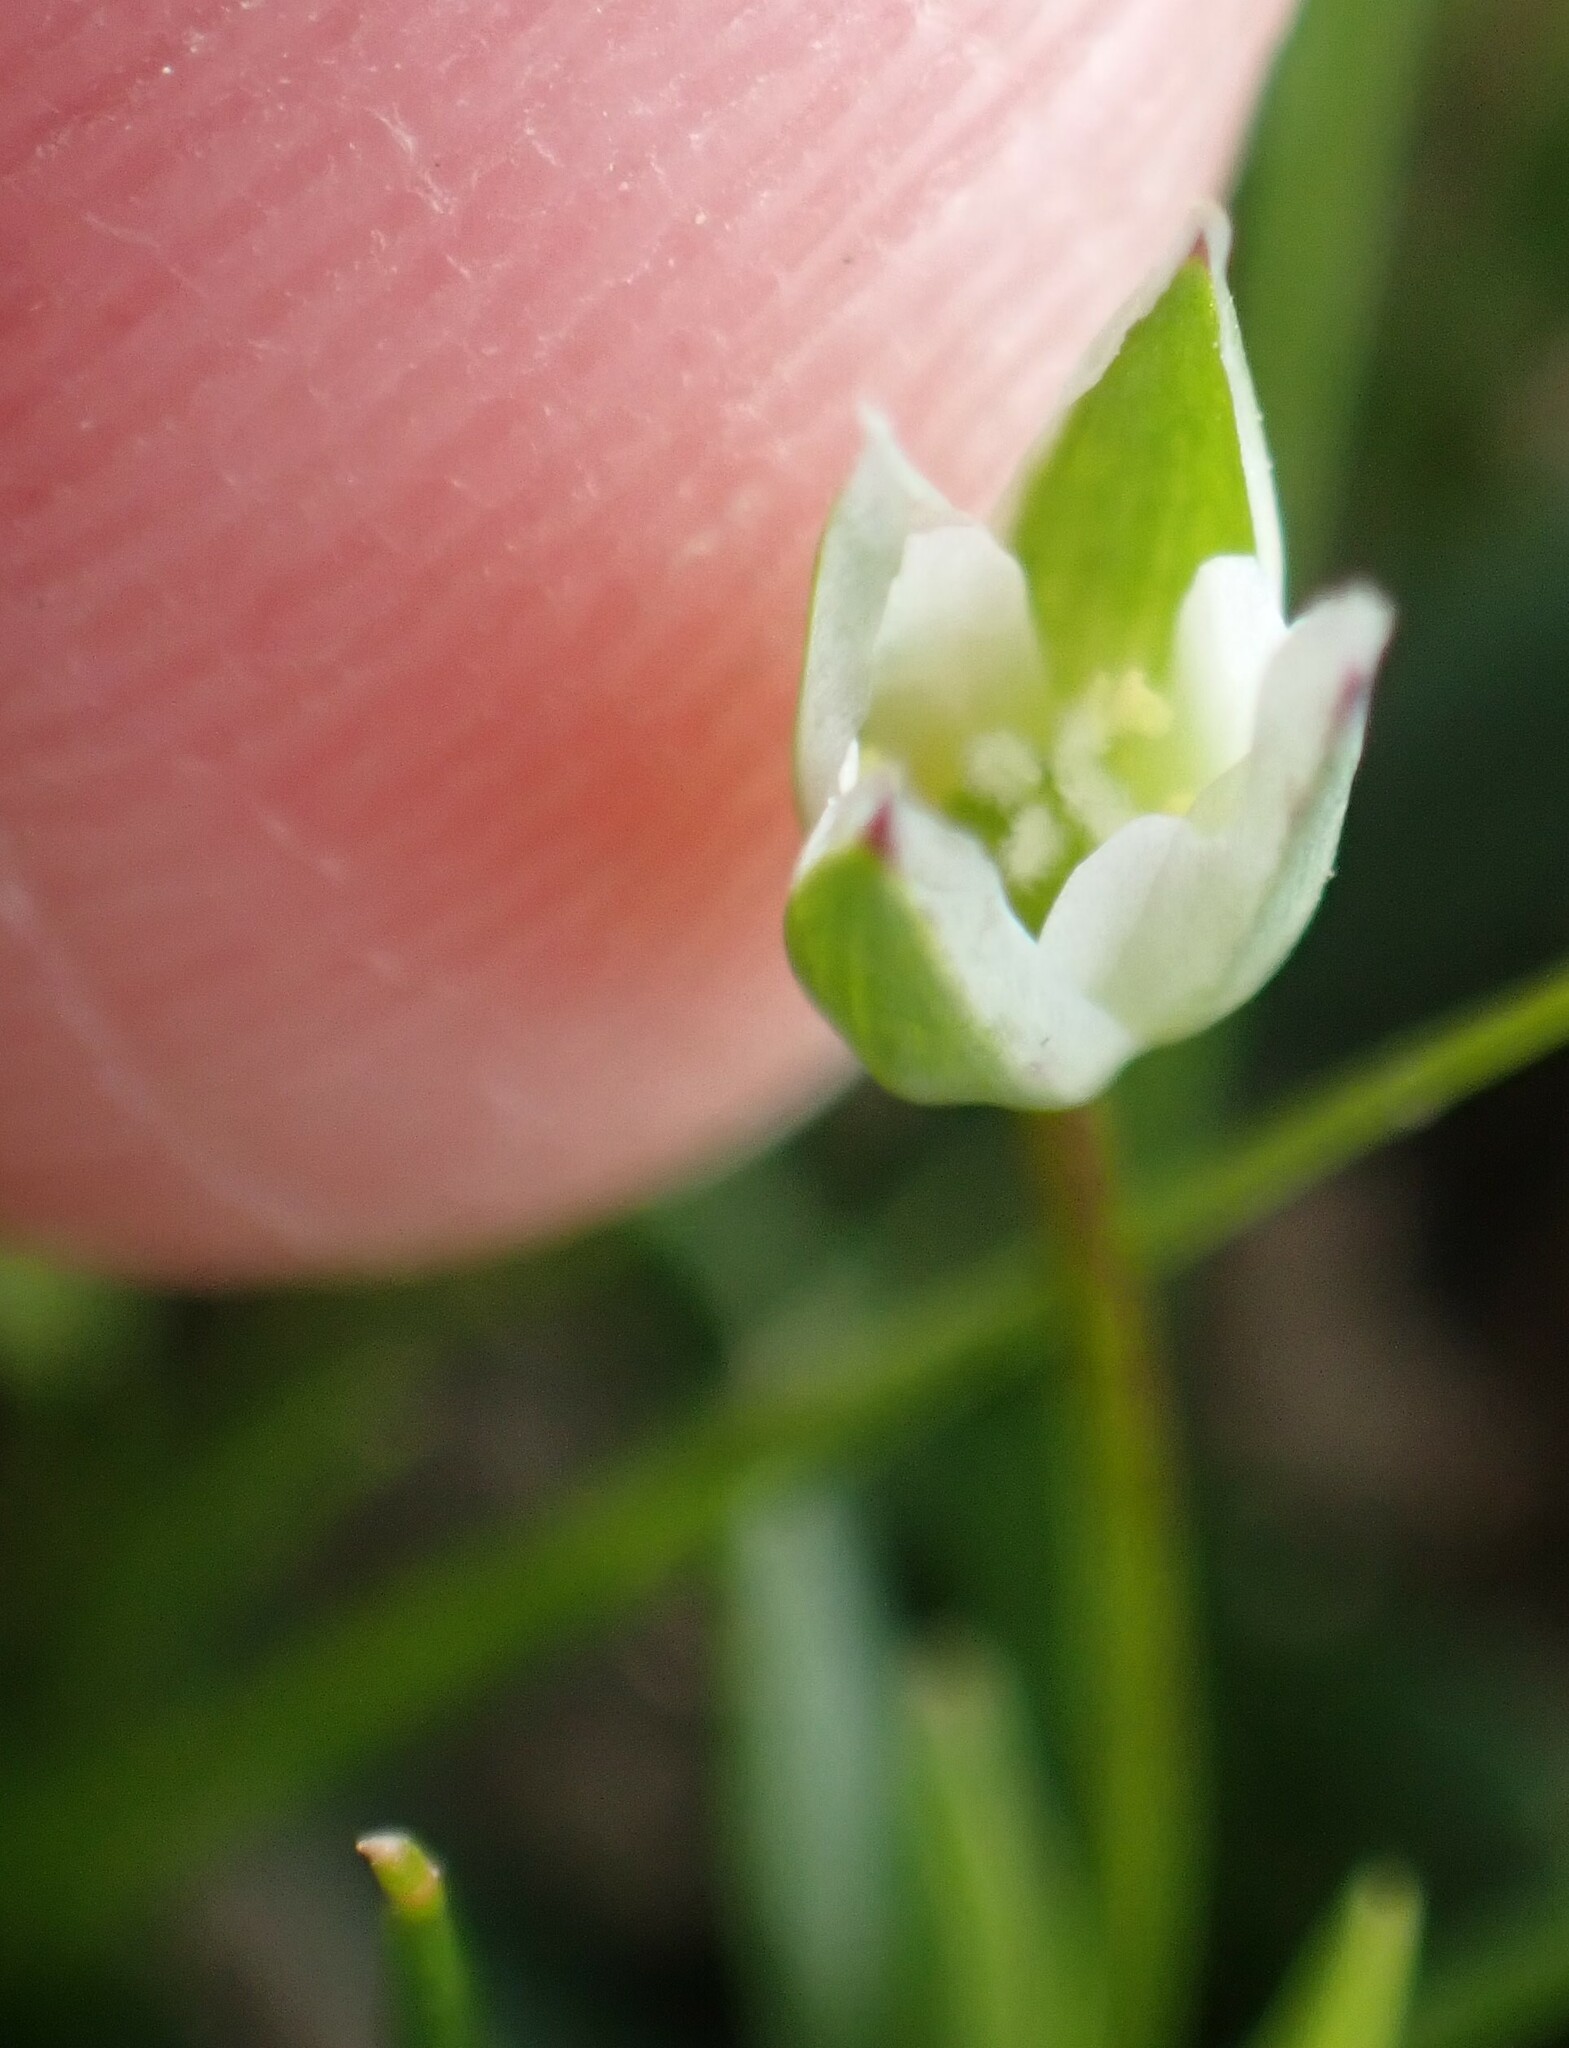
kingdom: Plantae
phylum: Tracheophyta
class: Magnoliopsida
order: Caryophyllales
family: Caryophyllaceae
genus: Moenchia
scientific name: Moenchia erecta
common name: Upright chickweed
